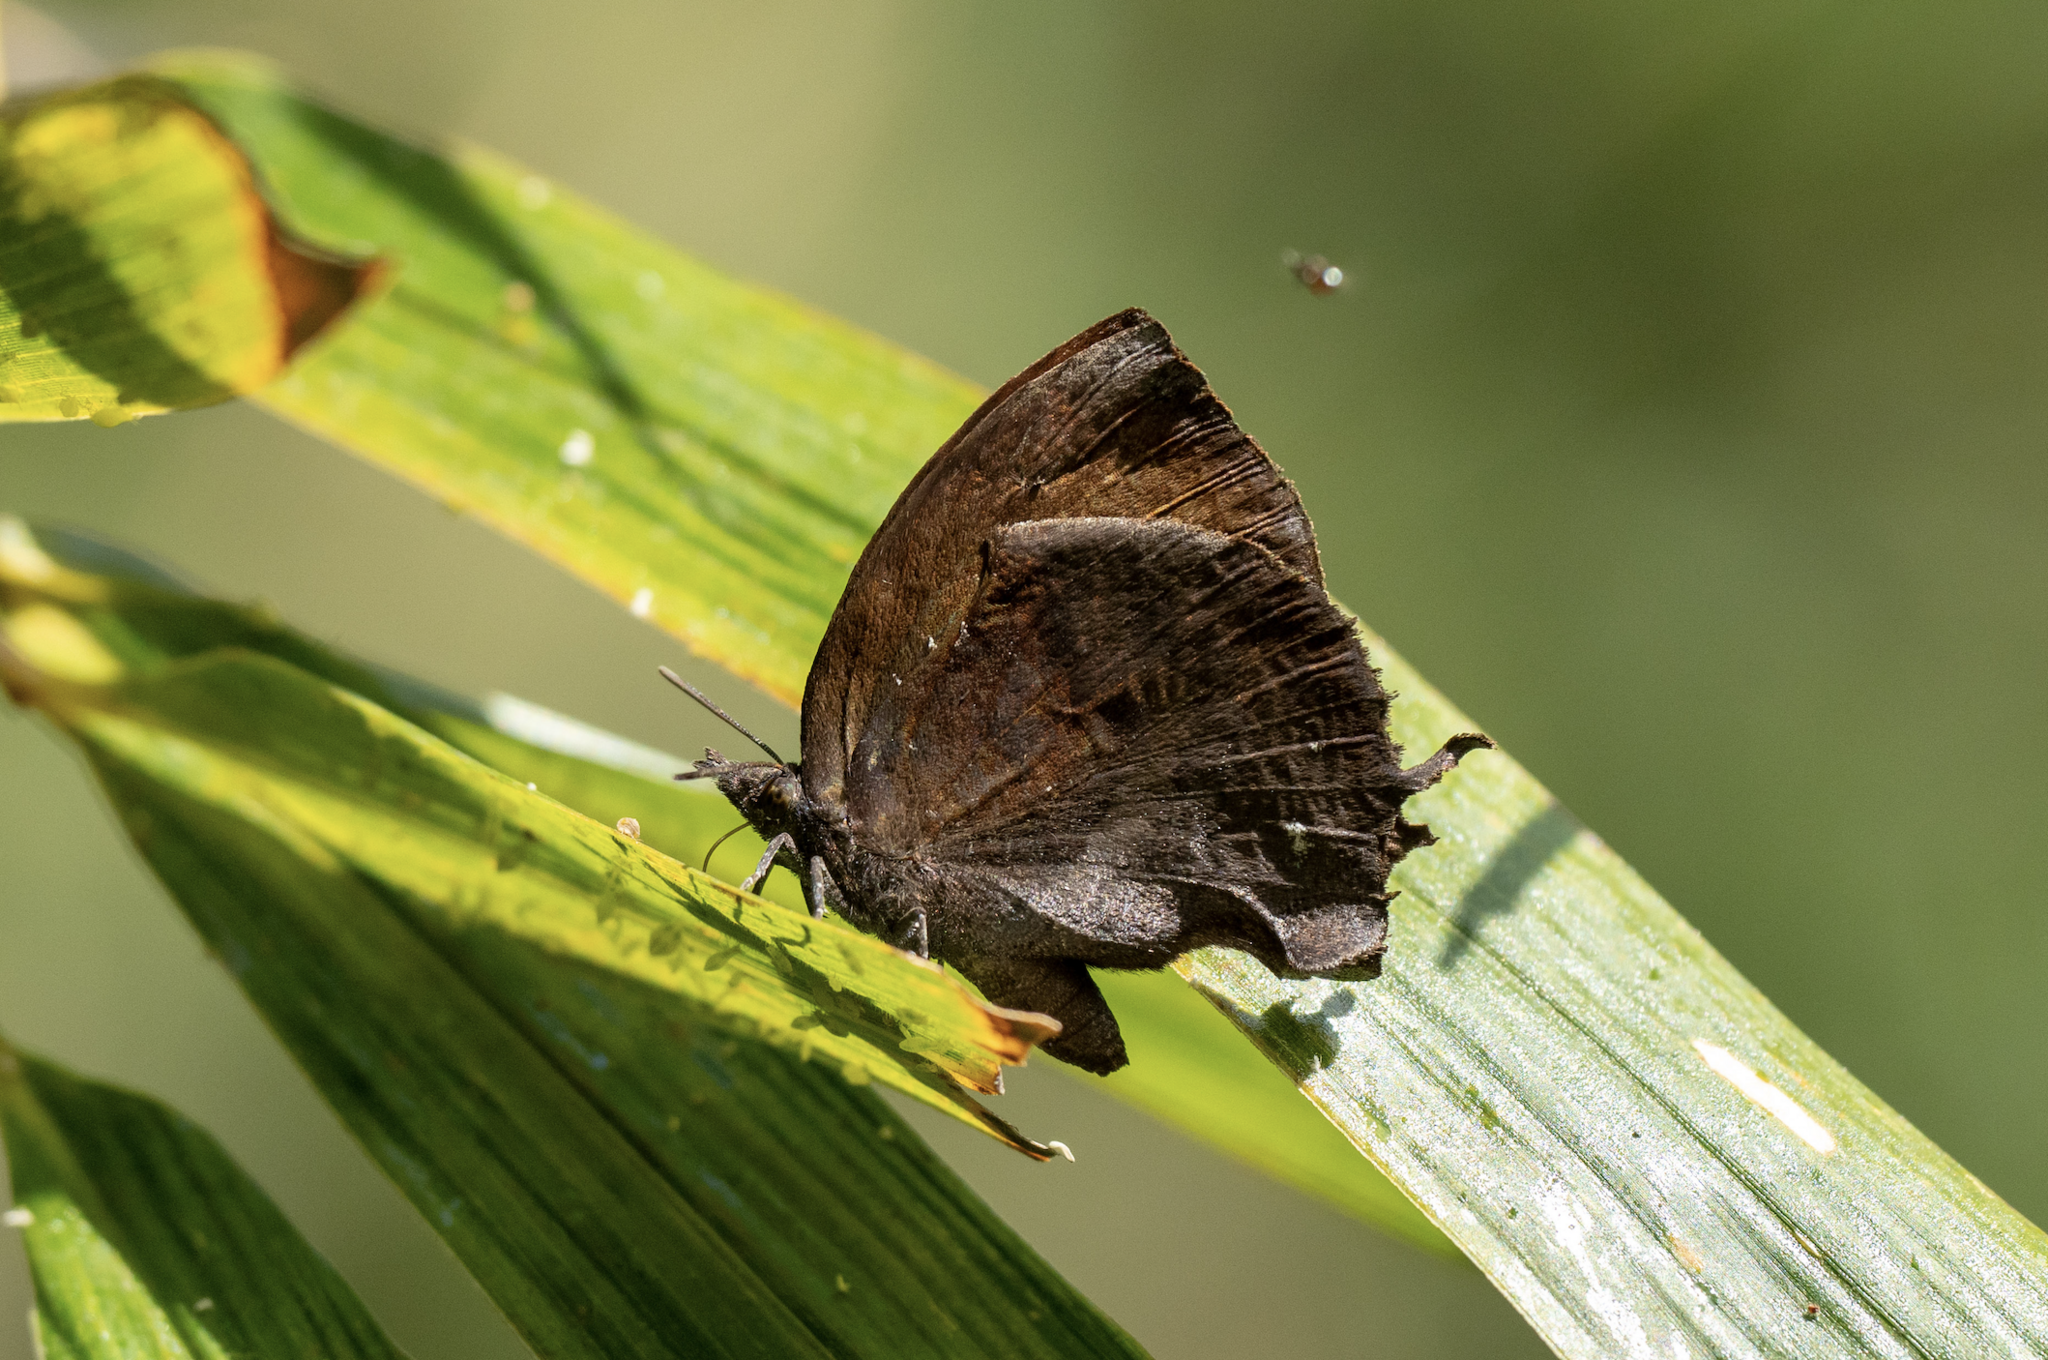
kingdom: Animalia
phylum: Arthropoda
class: Insecta
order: Lepidoptera
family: Lycaenidae
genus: Mahathala
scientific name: Mahathala ameria
